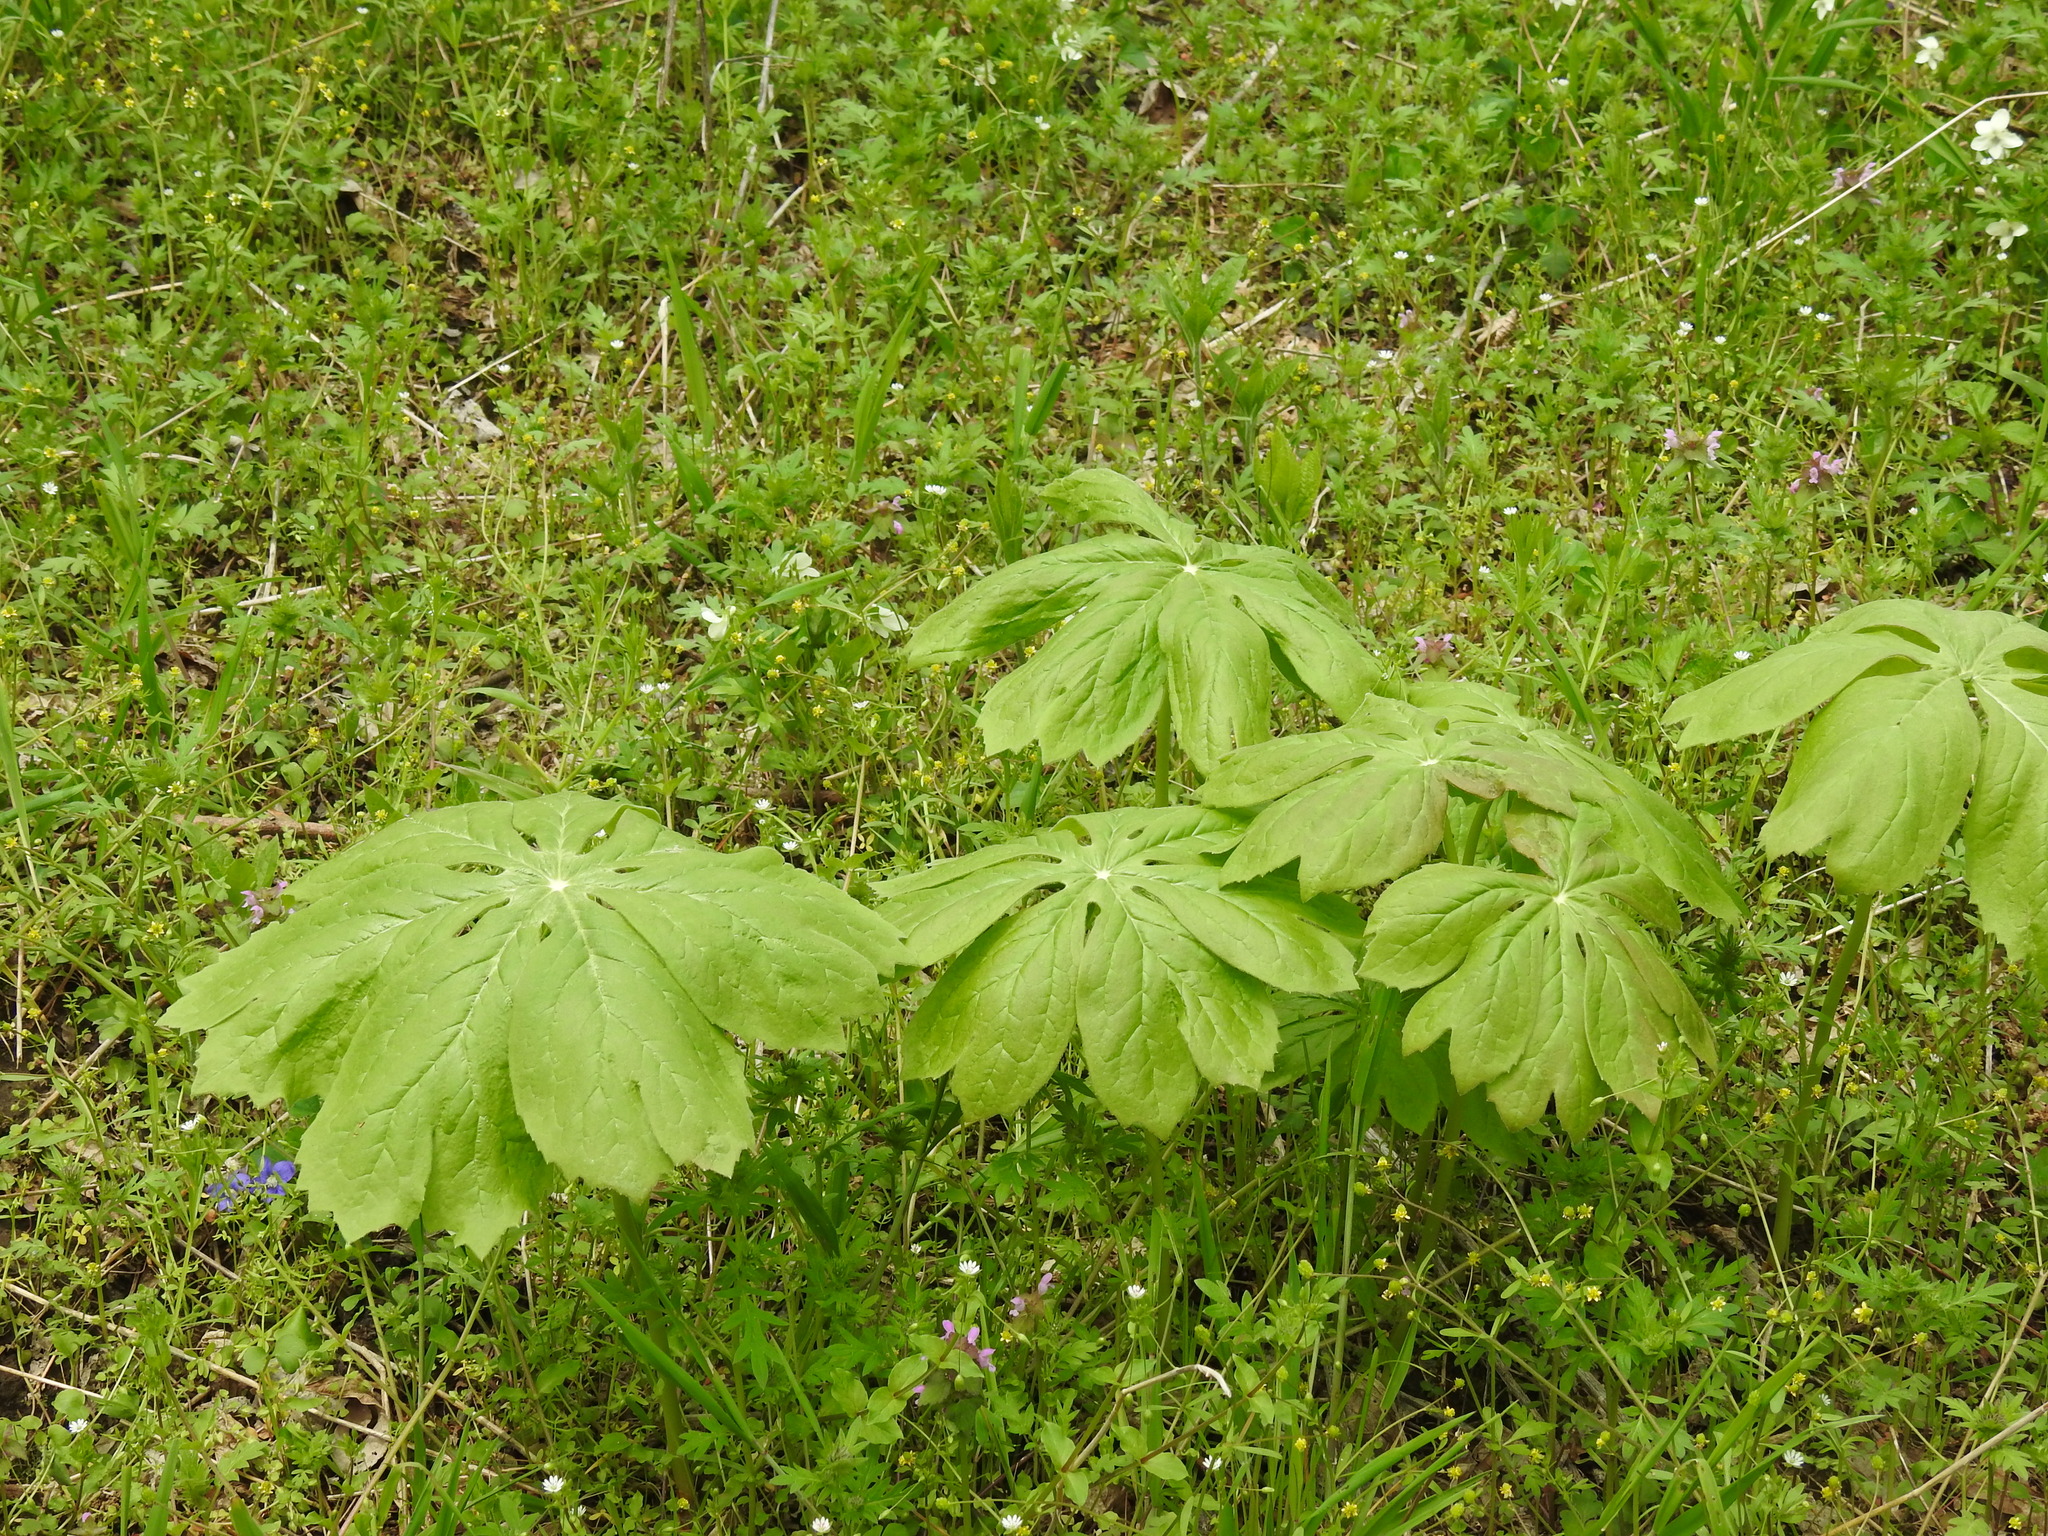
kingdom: Plantae
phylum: Tracheophyta
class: Magnoliopsida
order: Ranunculales
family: Berberidaceae
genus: Podophyllum
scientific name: Podophyllum peltatum
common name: Wild mandrake
